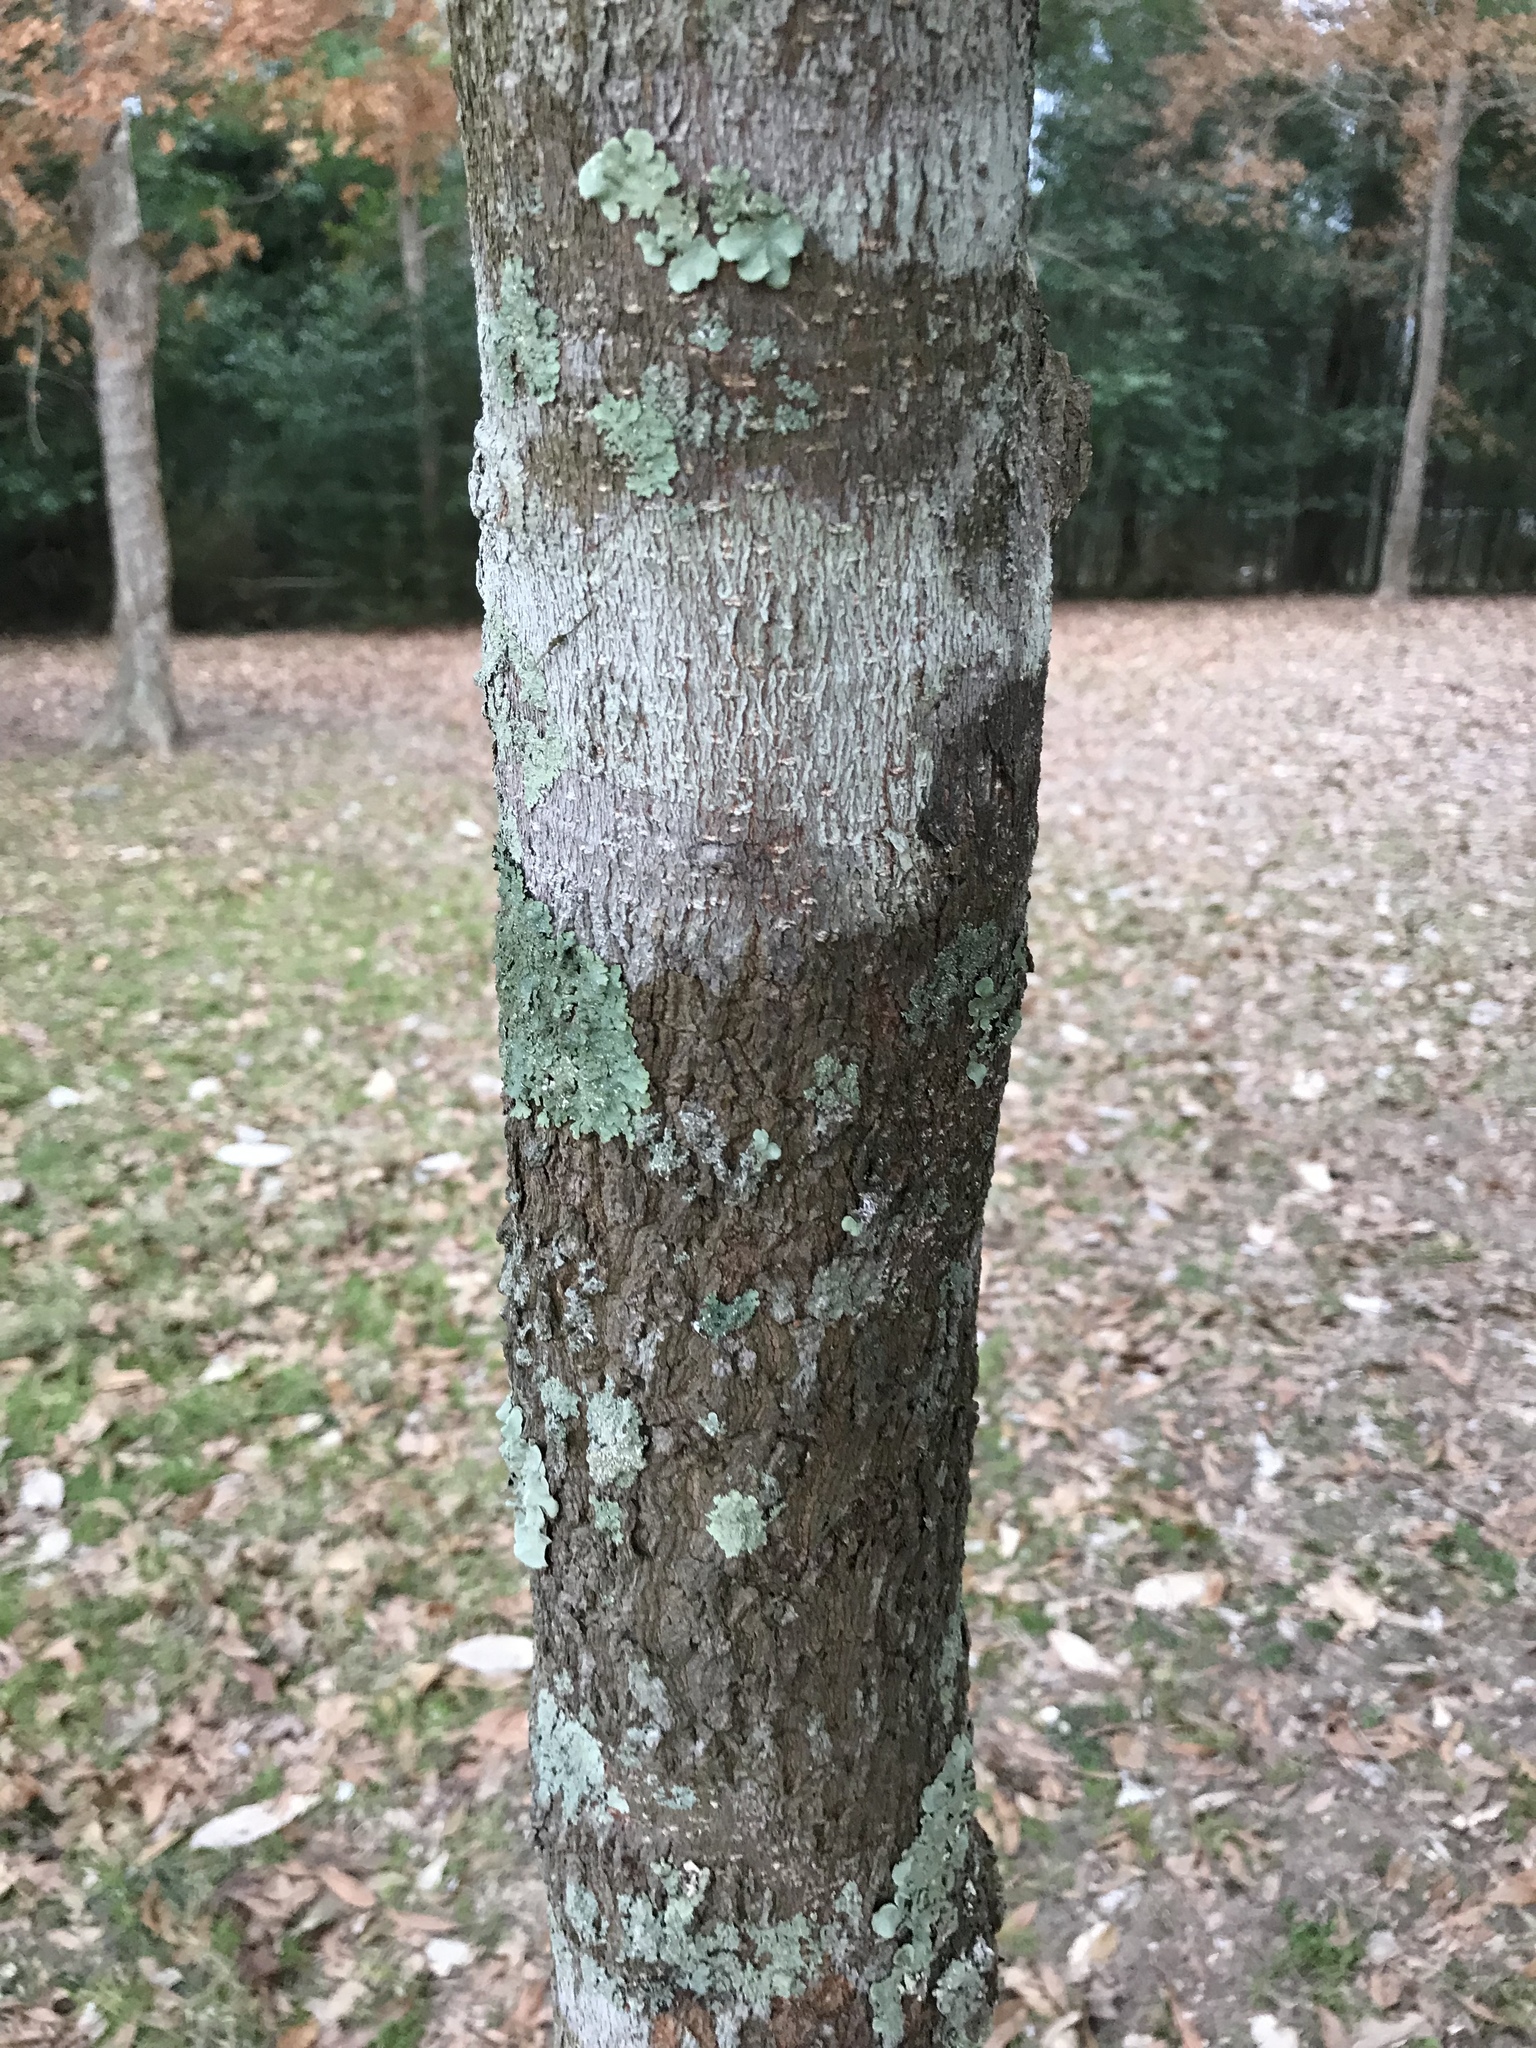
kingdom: Plantae
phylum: Tracheophyta
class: Magnoliopsida
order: Magnoliales
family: Magnoliaceae
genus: Magnolia
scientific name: Magnolia grandiflora
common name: Southern magnolia
